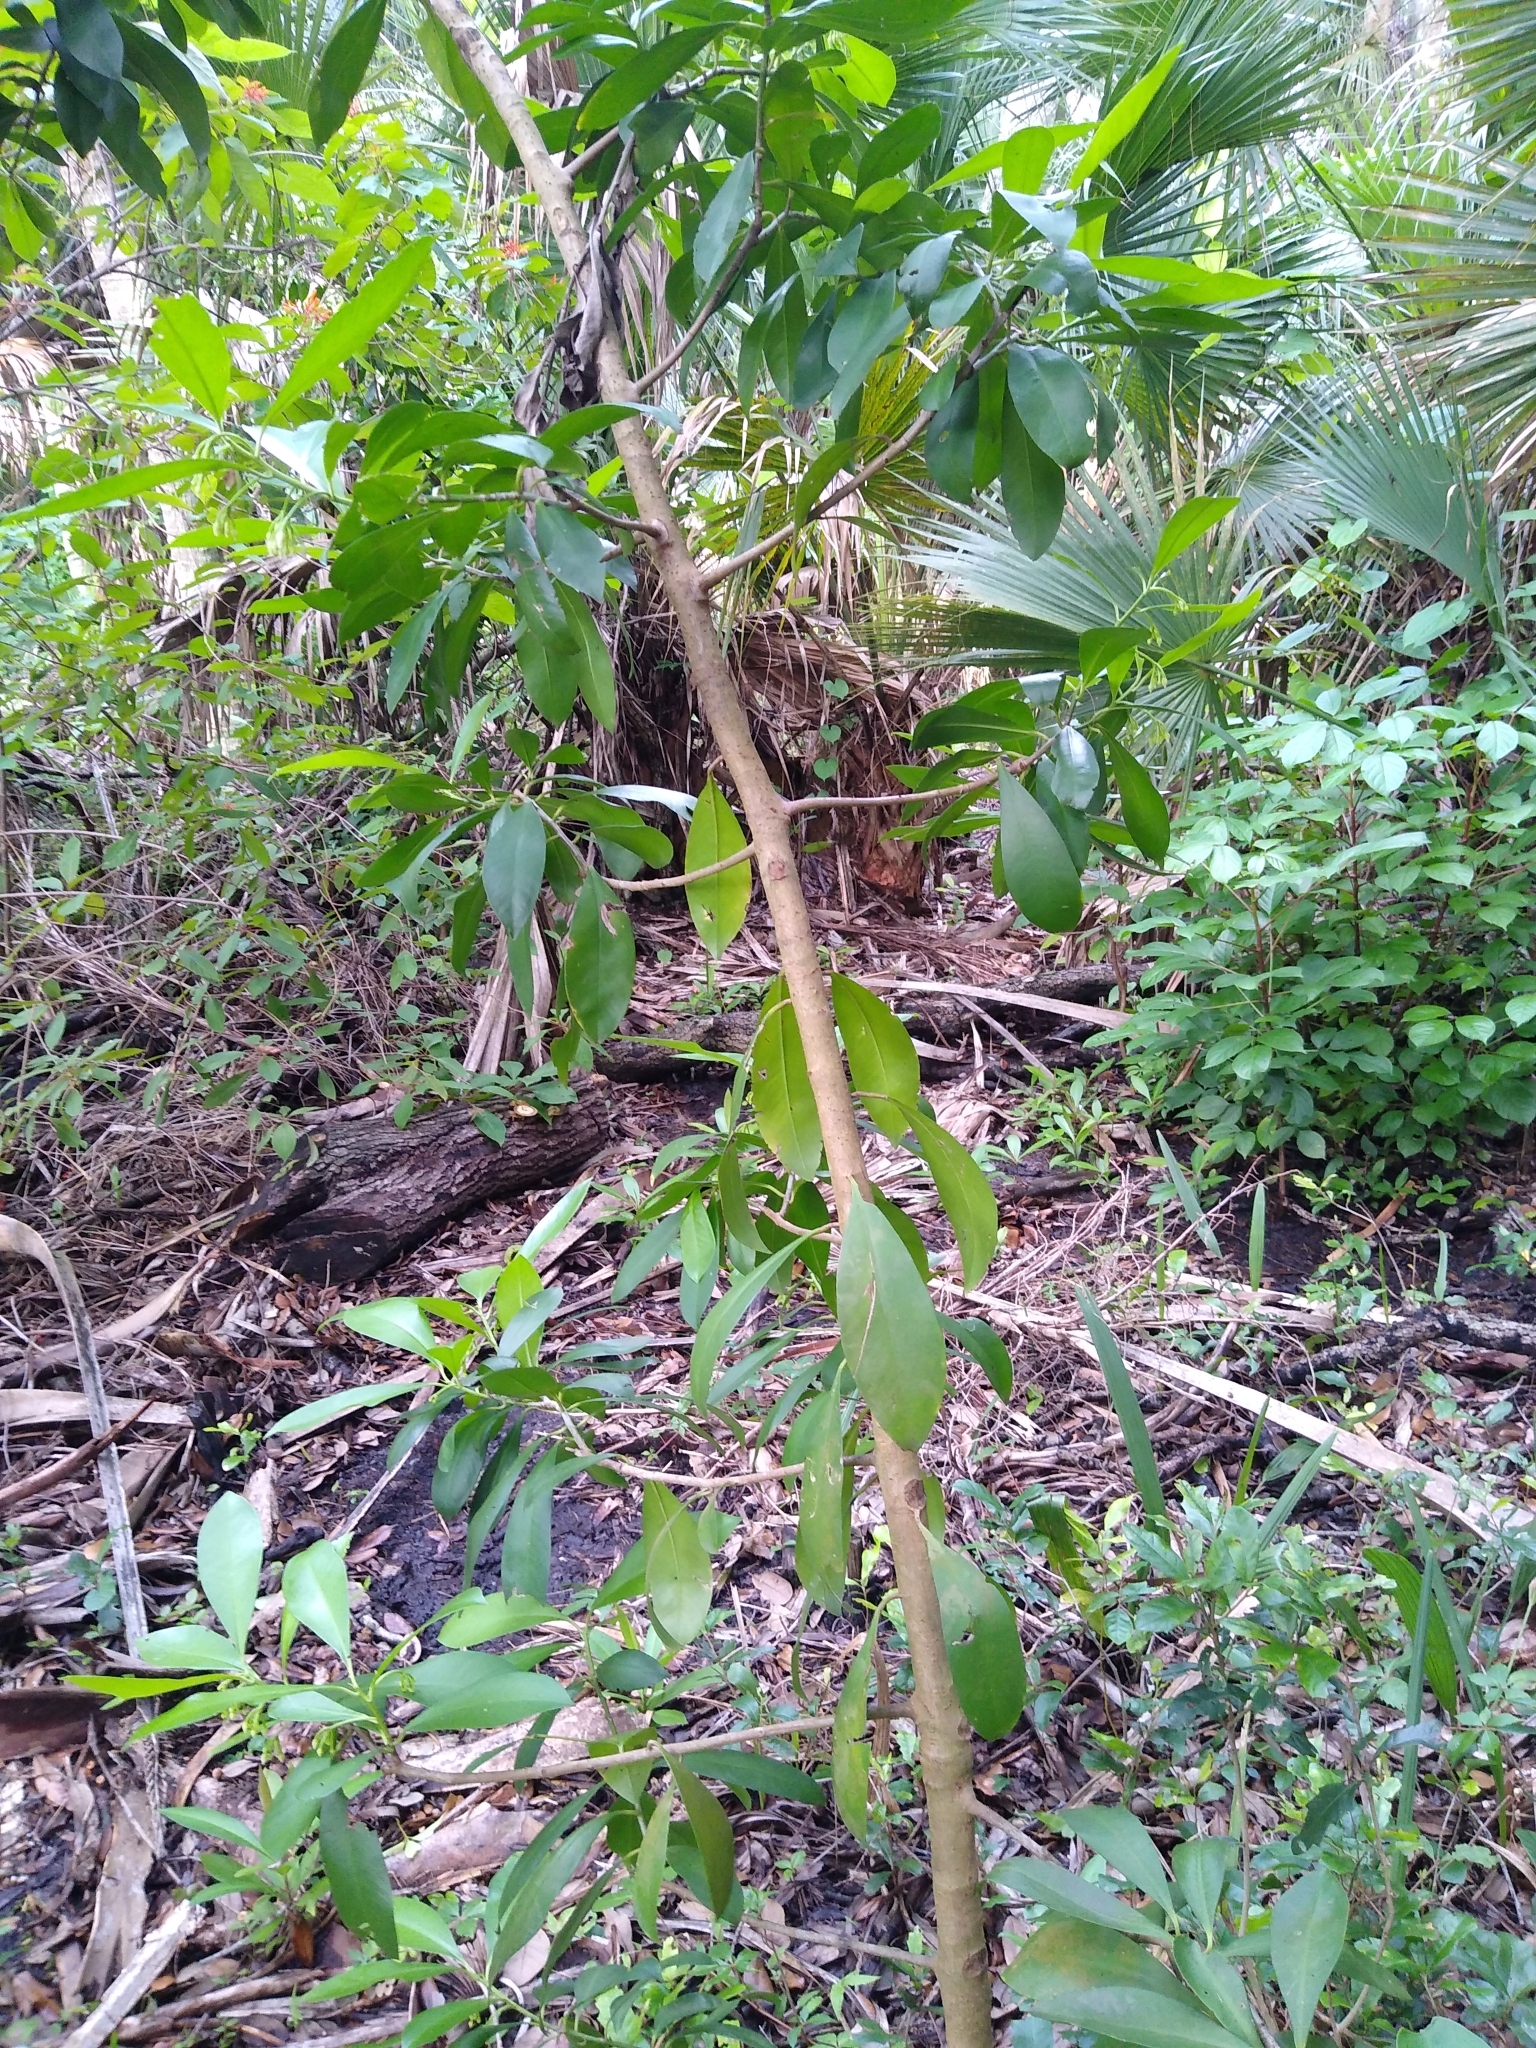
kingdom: Plantae
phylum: Tracheophyta
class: Magnoliopsida
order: Ericales
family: Primulaceae
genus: Ardisia
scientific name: Ardisia elliptica
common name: Shoebutton
